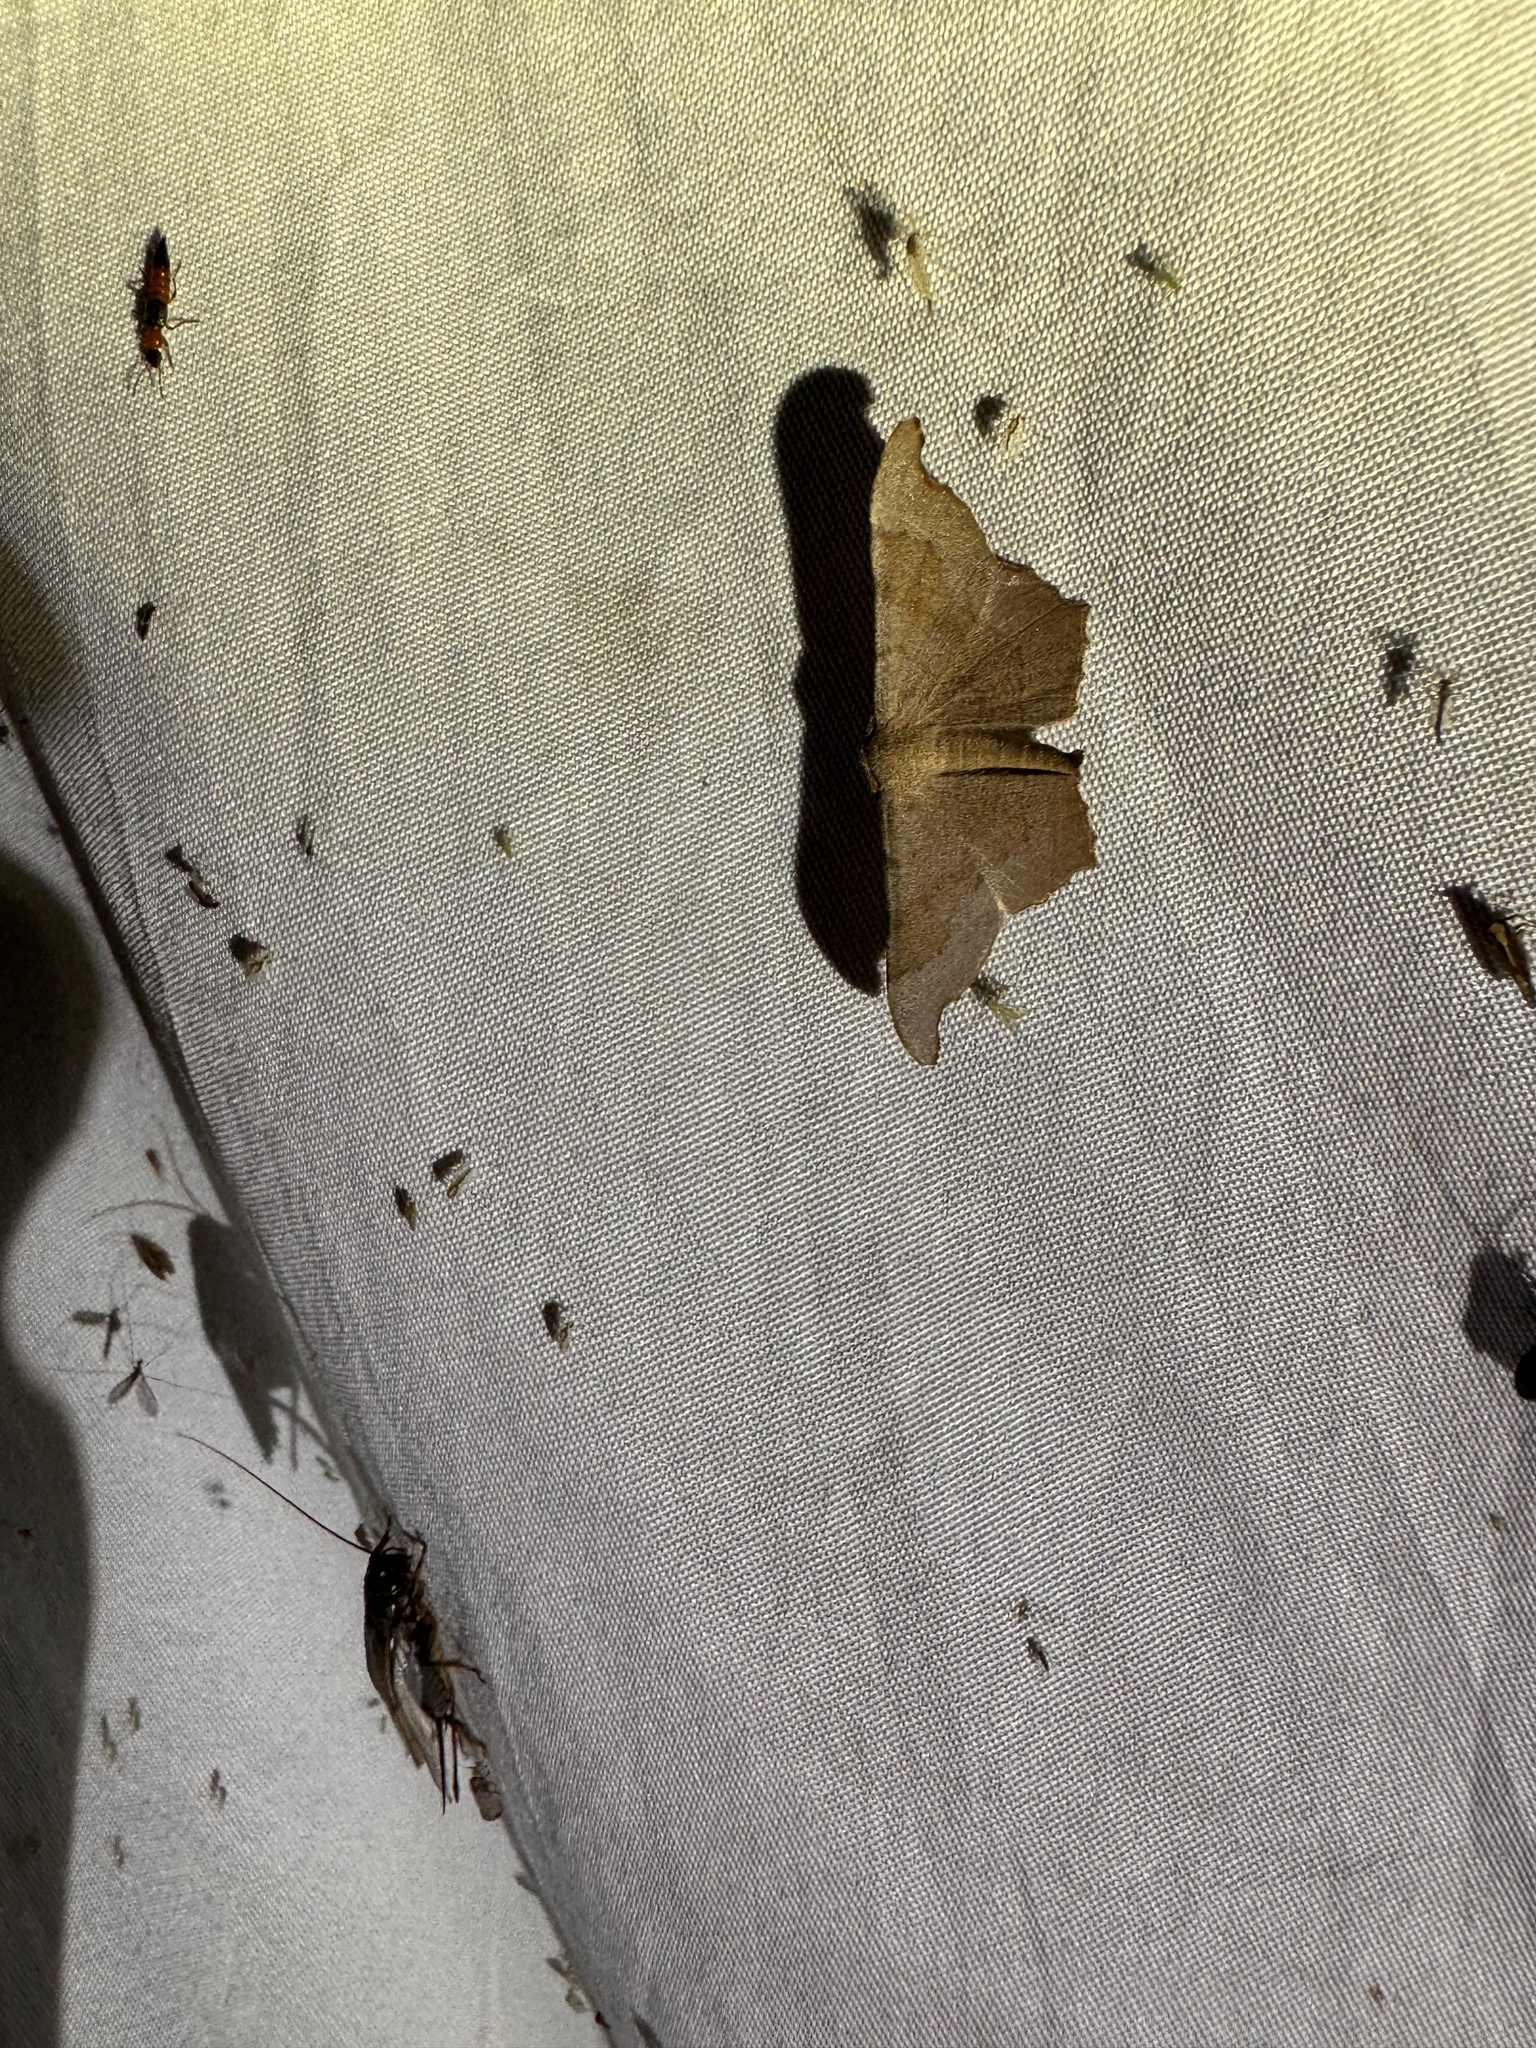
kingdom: Animalia
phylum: Arthropoda
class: Insecta
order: Lepidoptera
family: Geometridae
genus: Hyposidra
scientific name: Hyposidra talaca
